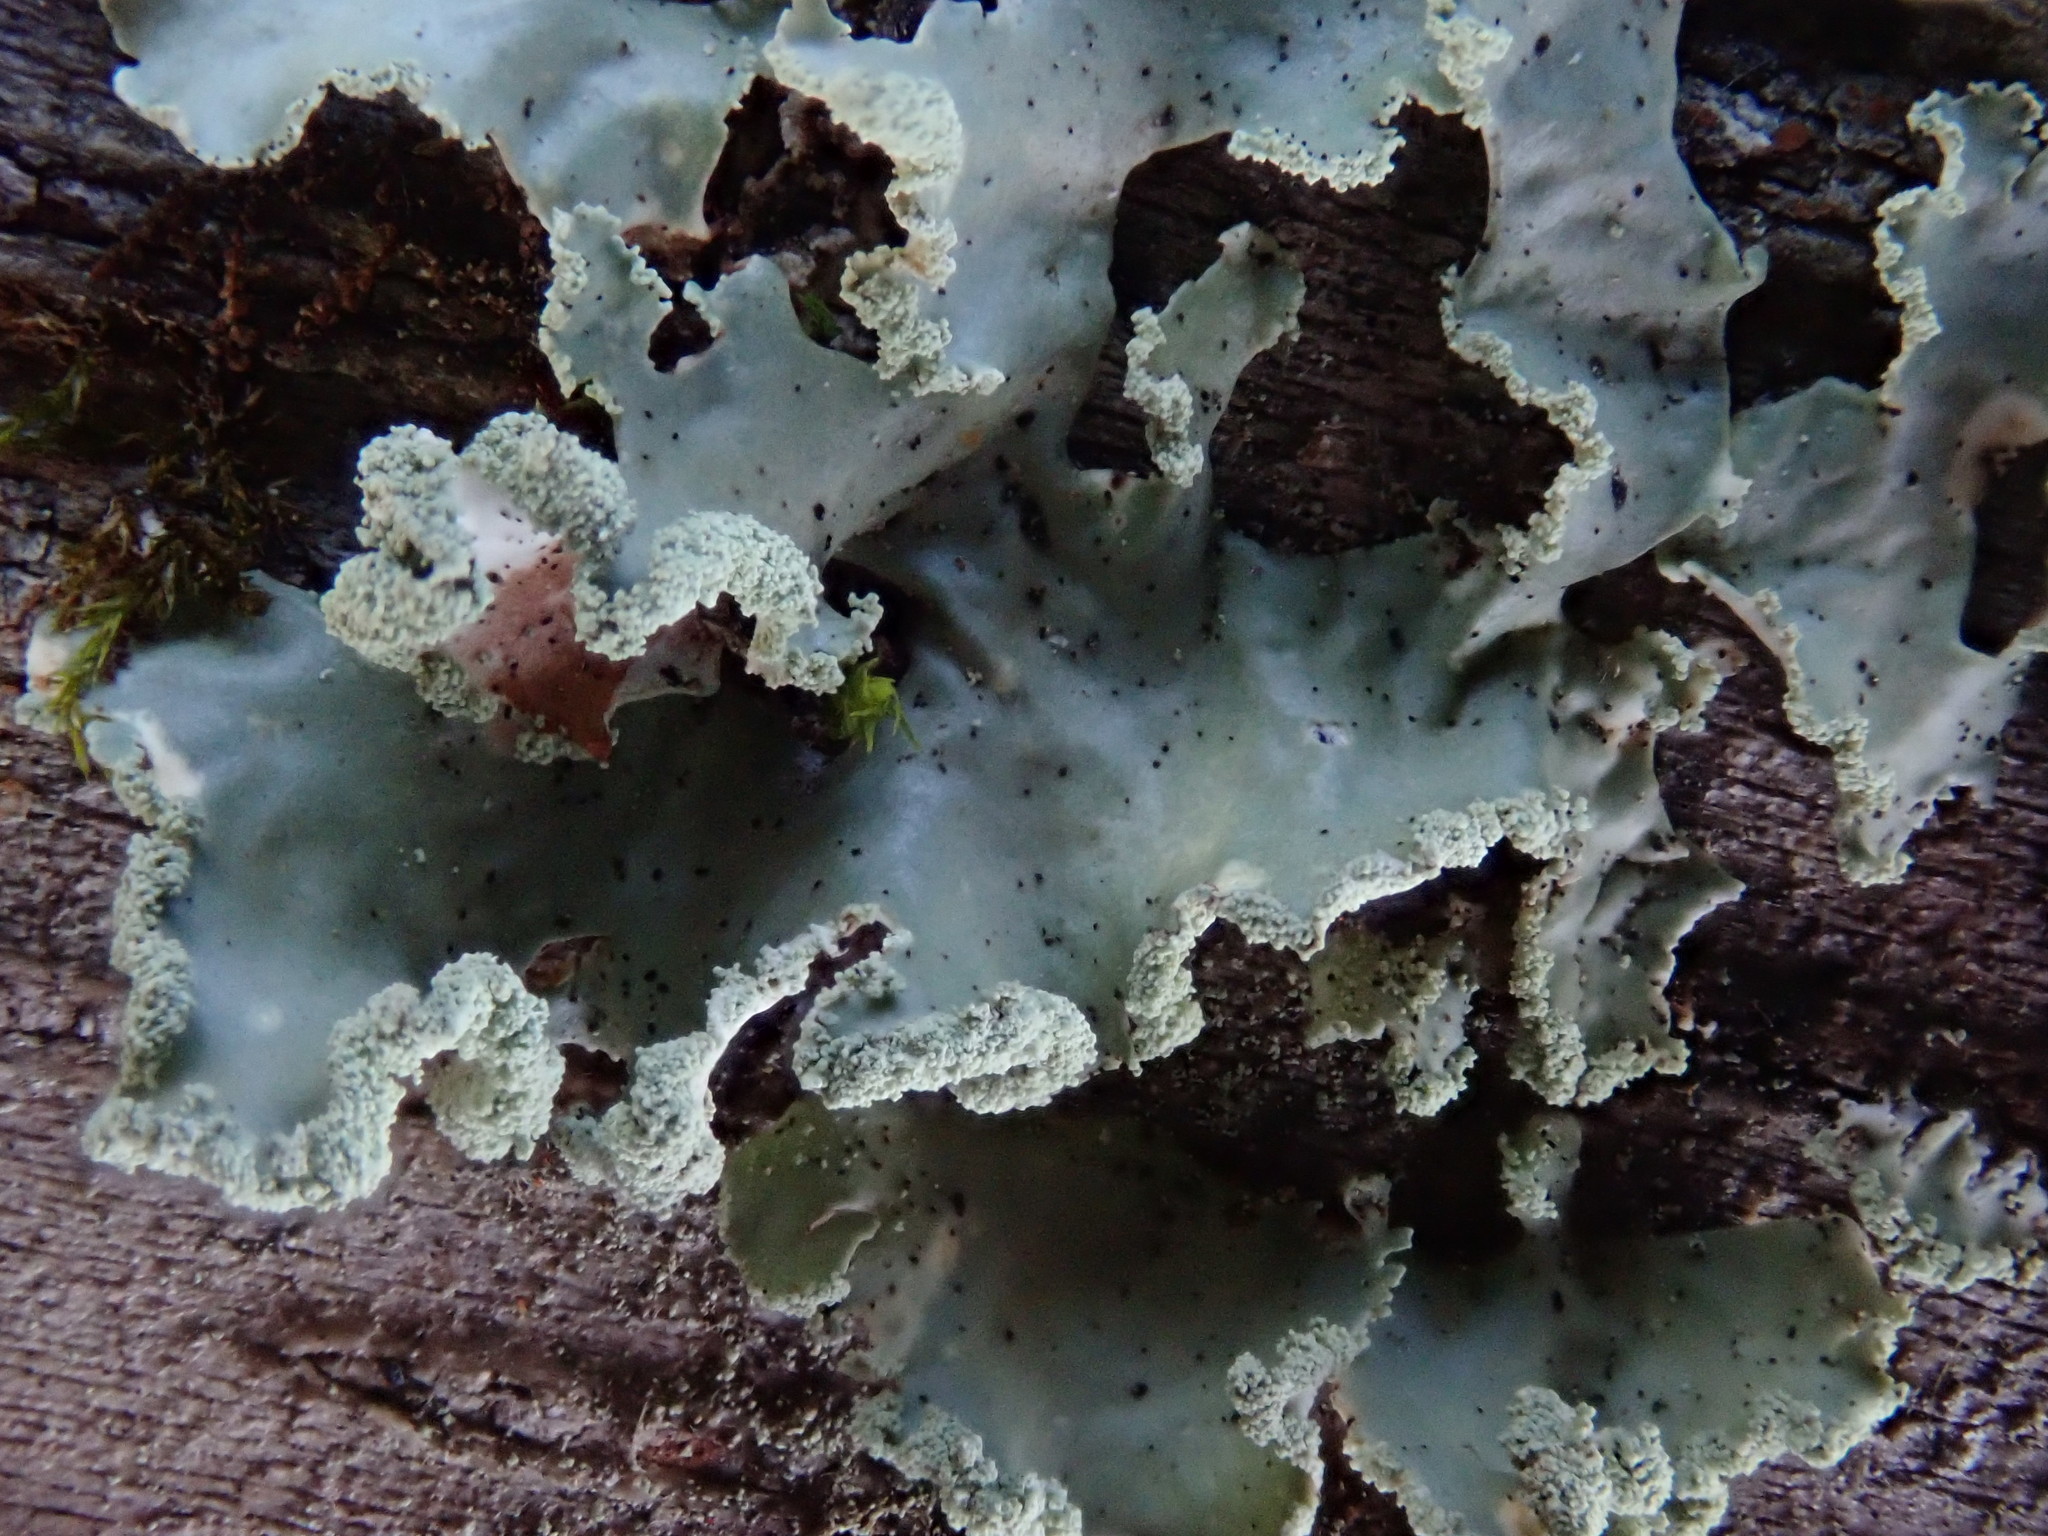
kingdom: Fungi
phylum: Ascomycota
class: Lecanoromycetes
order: Lecanorales
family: Parmeliaceae
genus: Usnocetraria
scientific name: Usnocetraria oakesiana
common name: Yellow ribbon lichen
